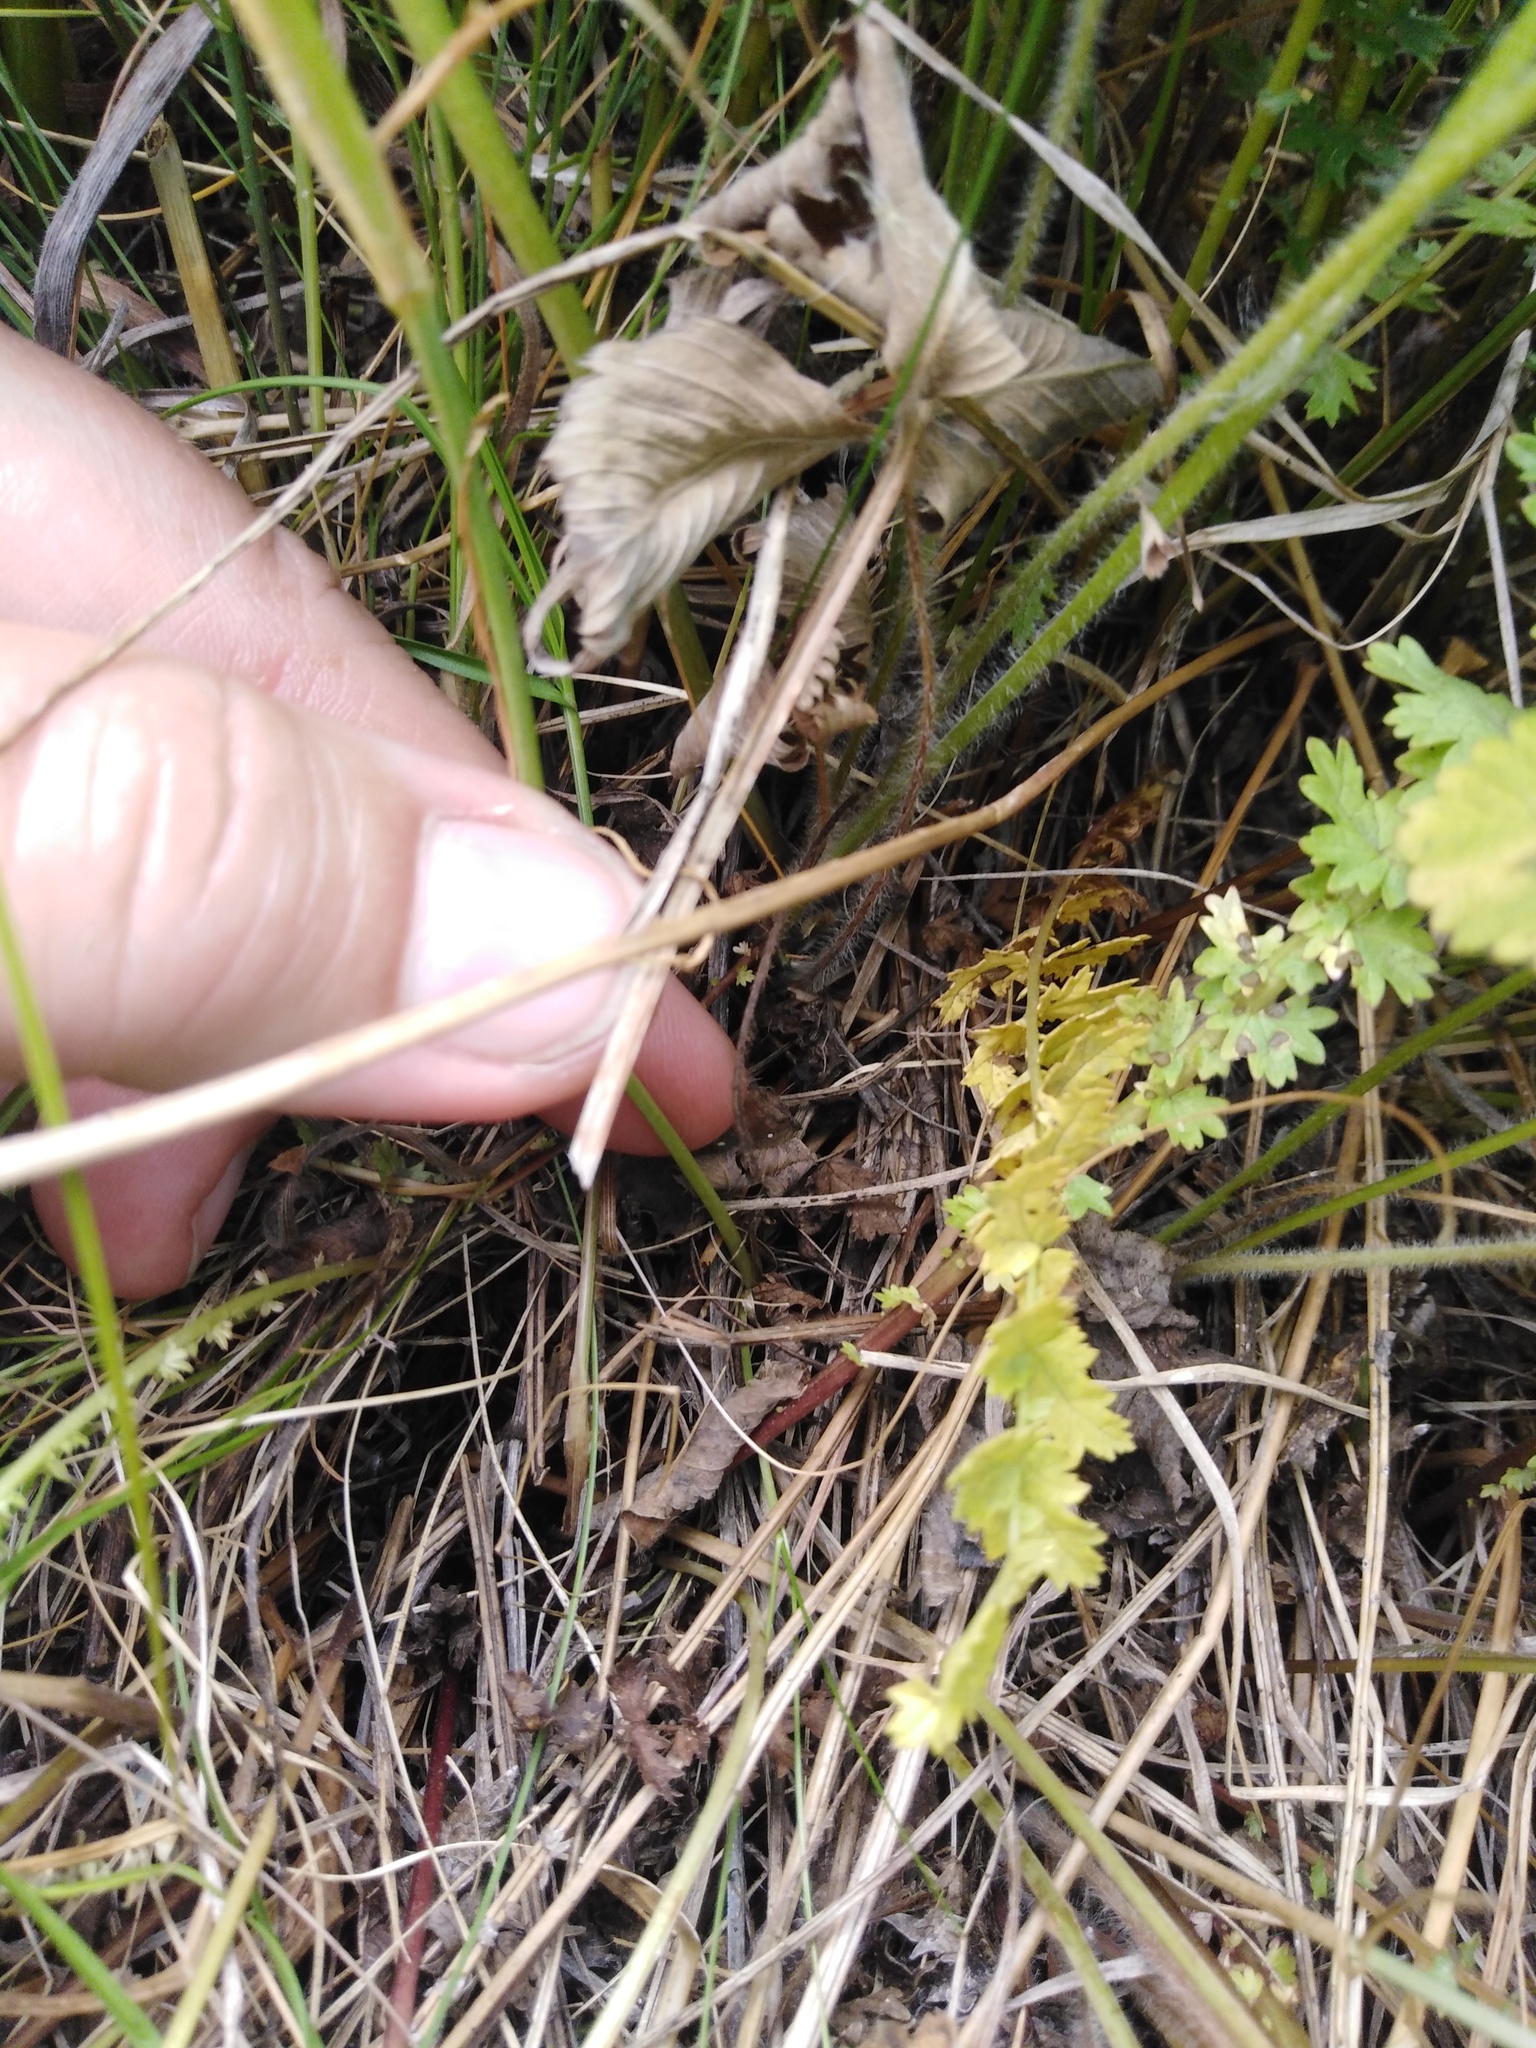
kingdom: Plantae
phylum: Tracheophyta
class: Magnoliopsida
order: Caryophyllales
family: Caryophyllaceae
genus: Eremogone
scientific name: Eremogone saxatilis
